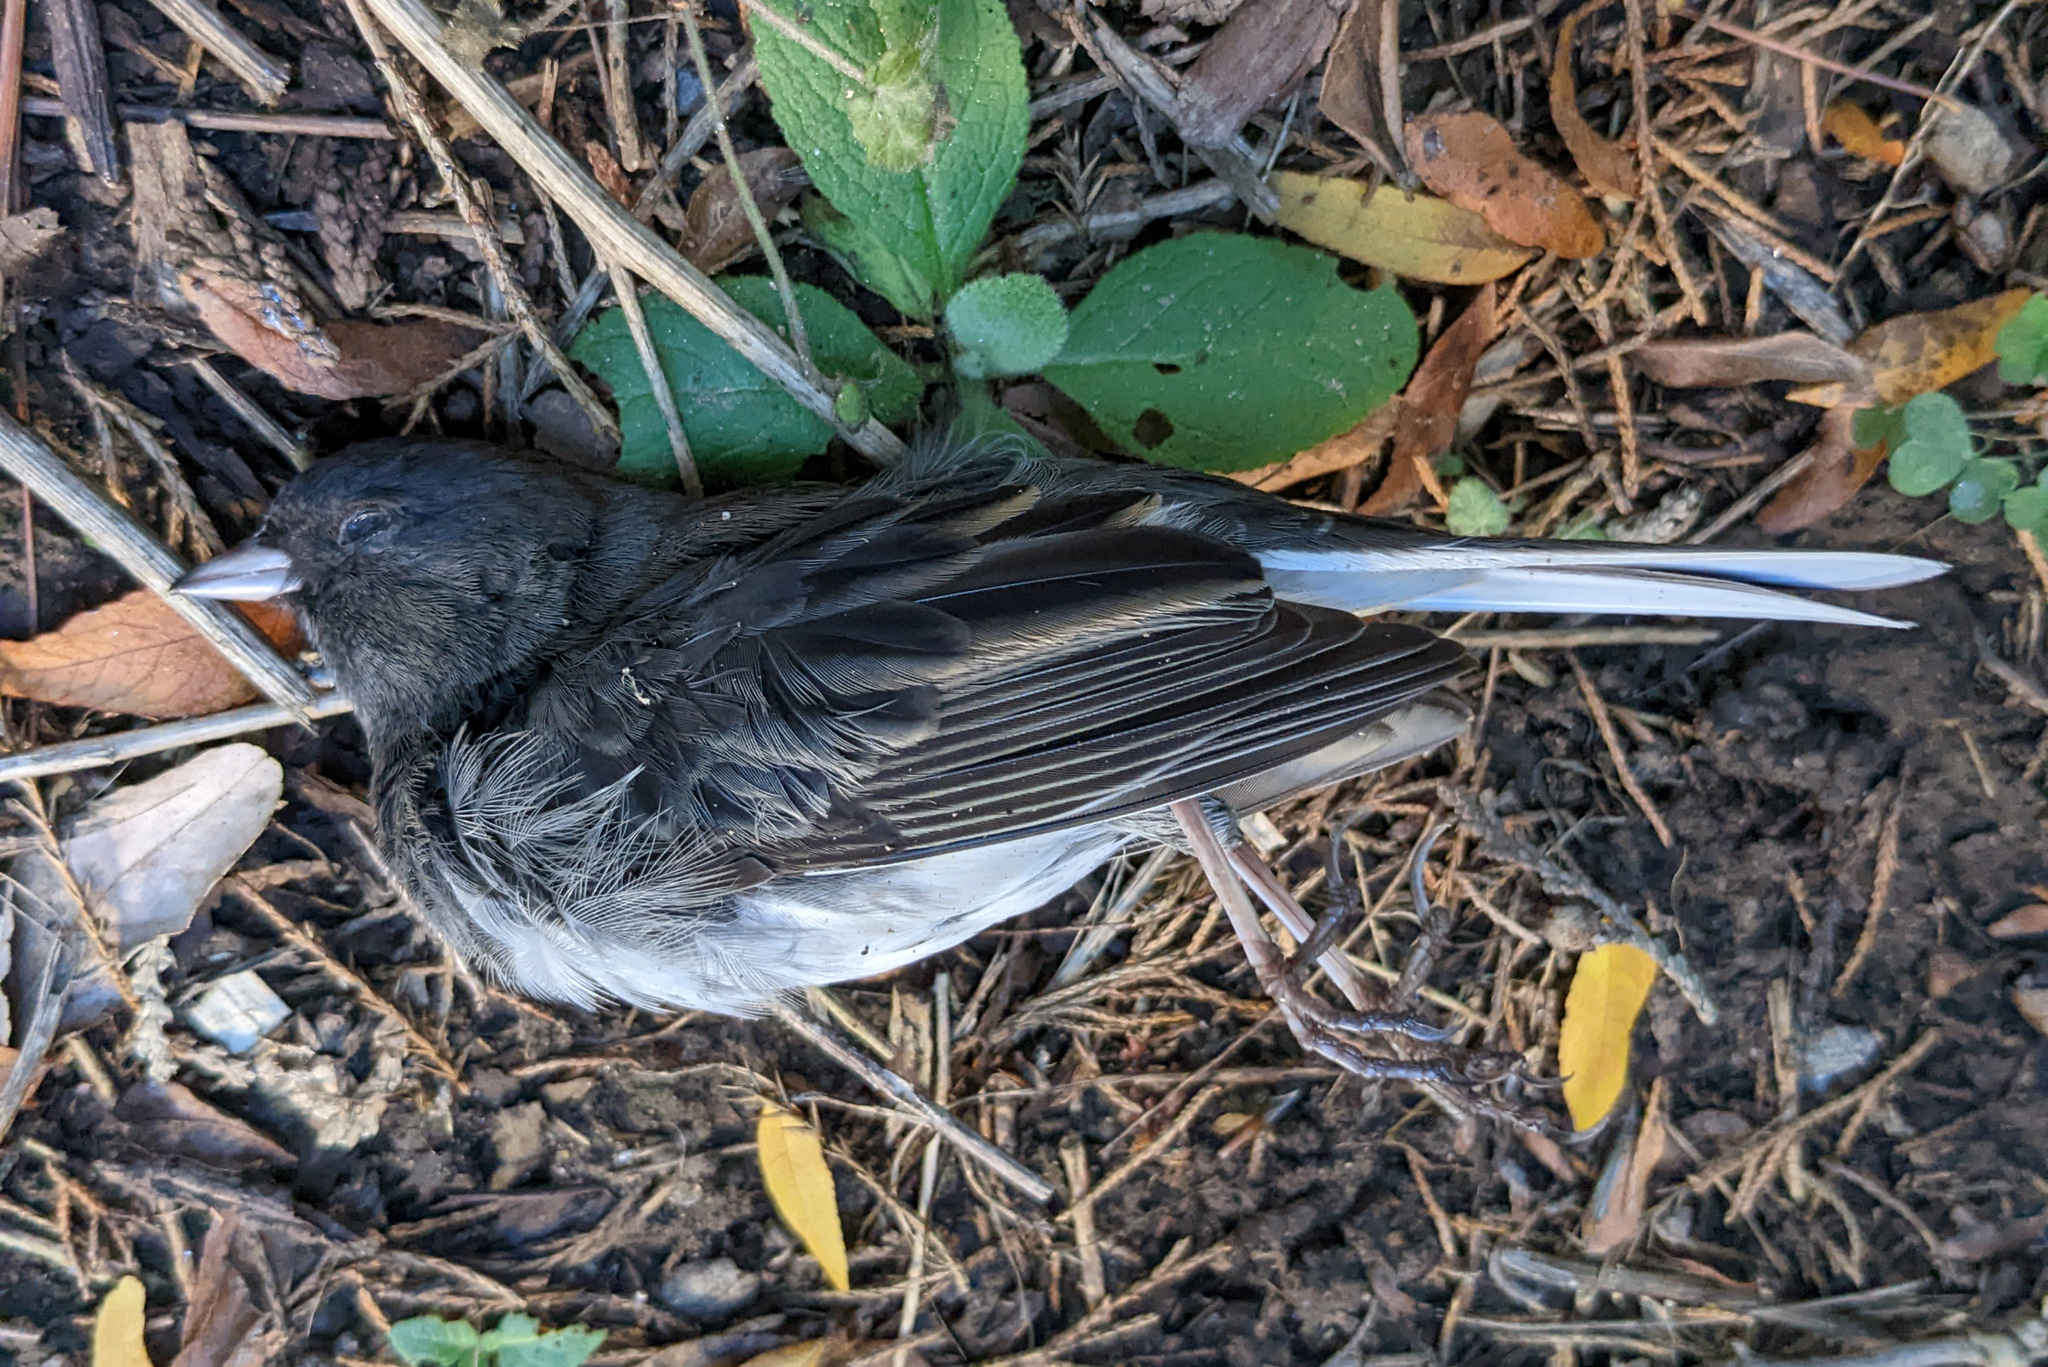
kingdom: Animalia
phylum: Chordata
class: Aves
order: Passeriformes
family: Passerellidae
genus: Junco
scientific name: Junco hyemalis
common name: Dark-eyed junco
